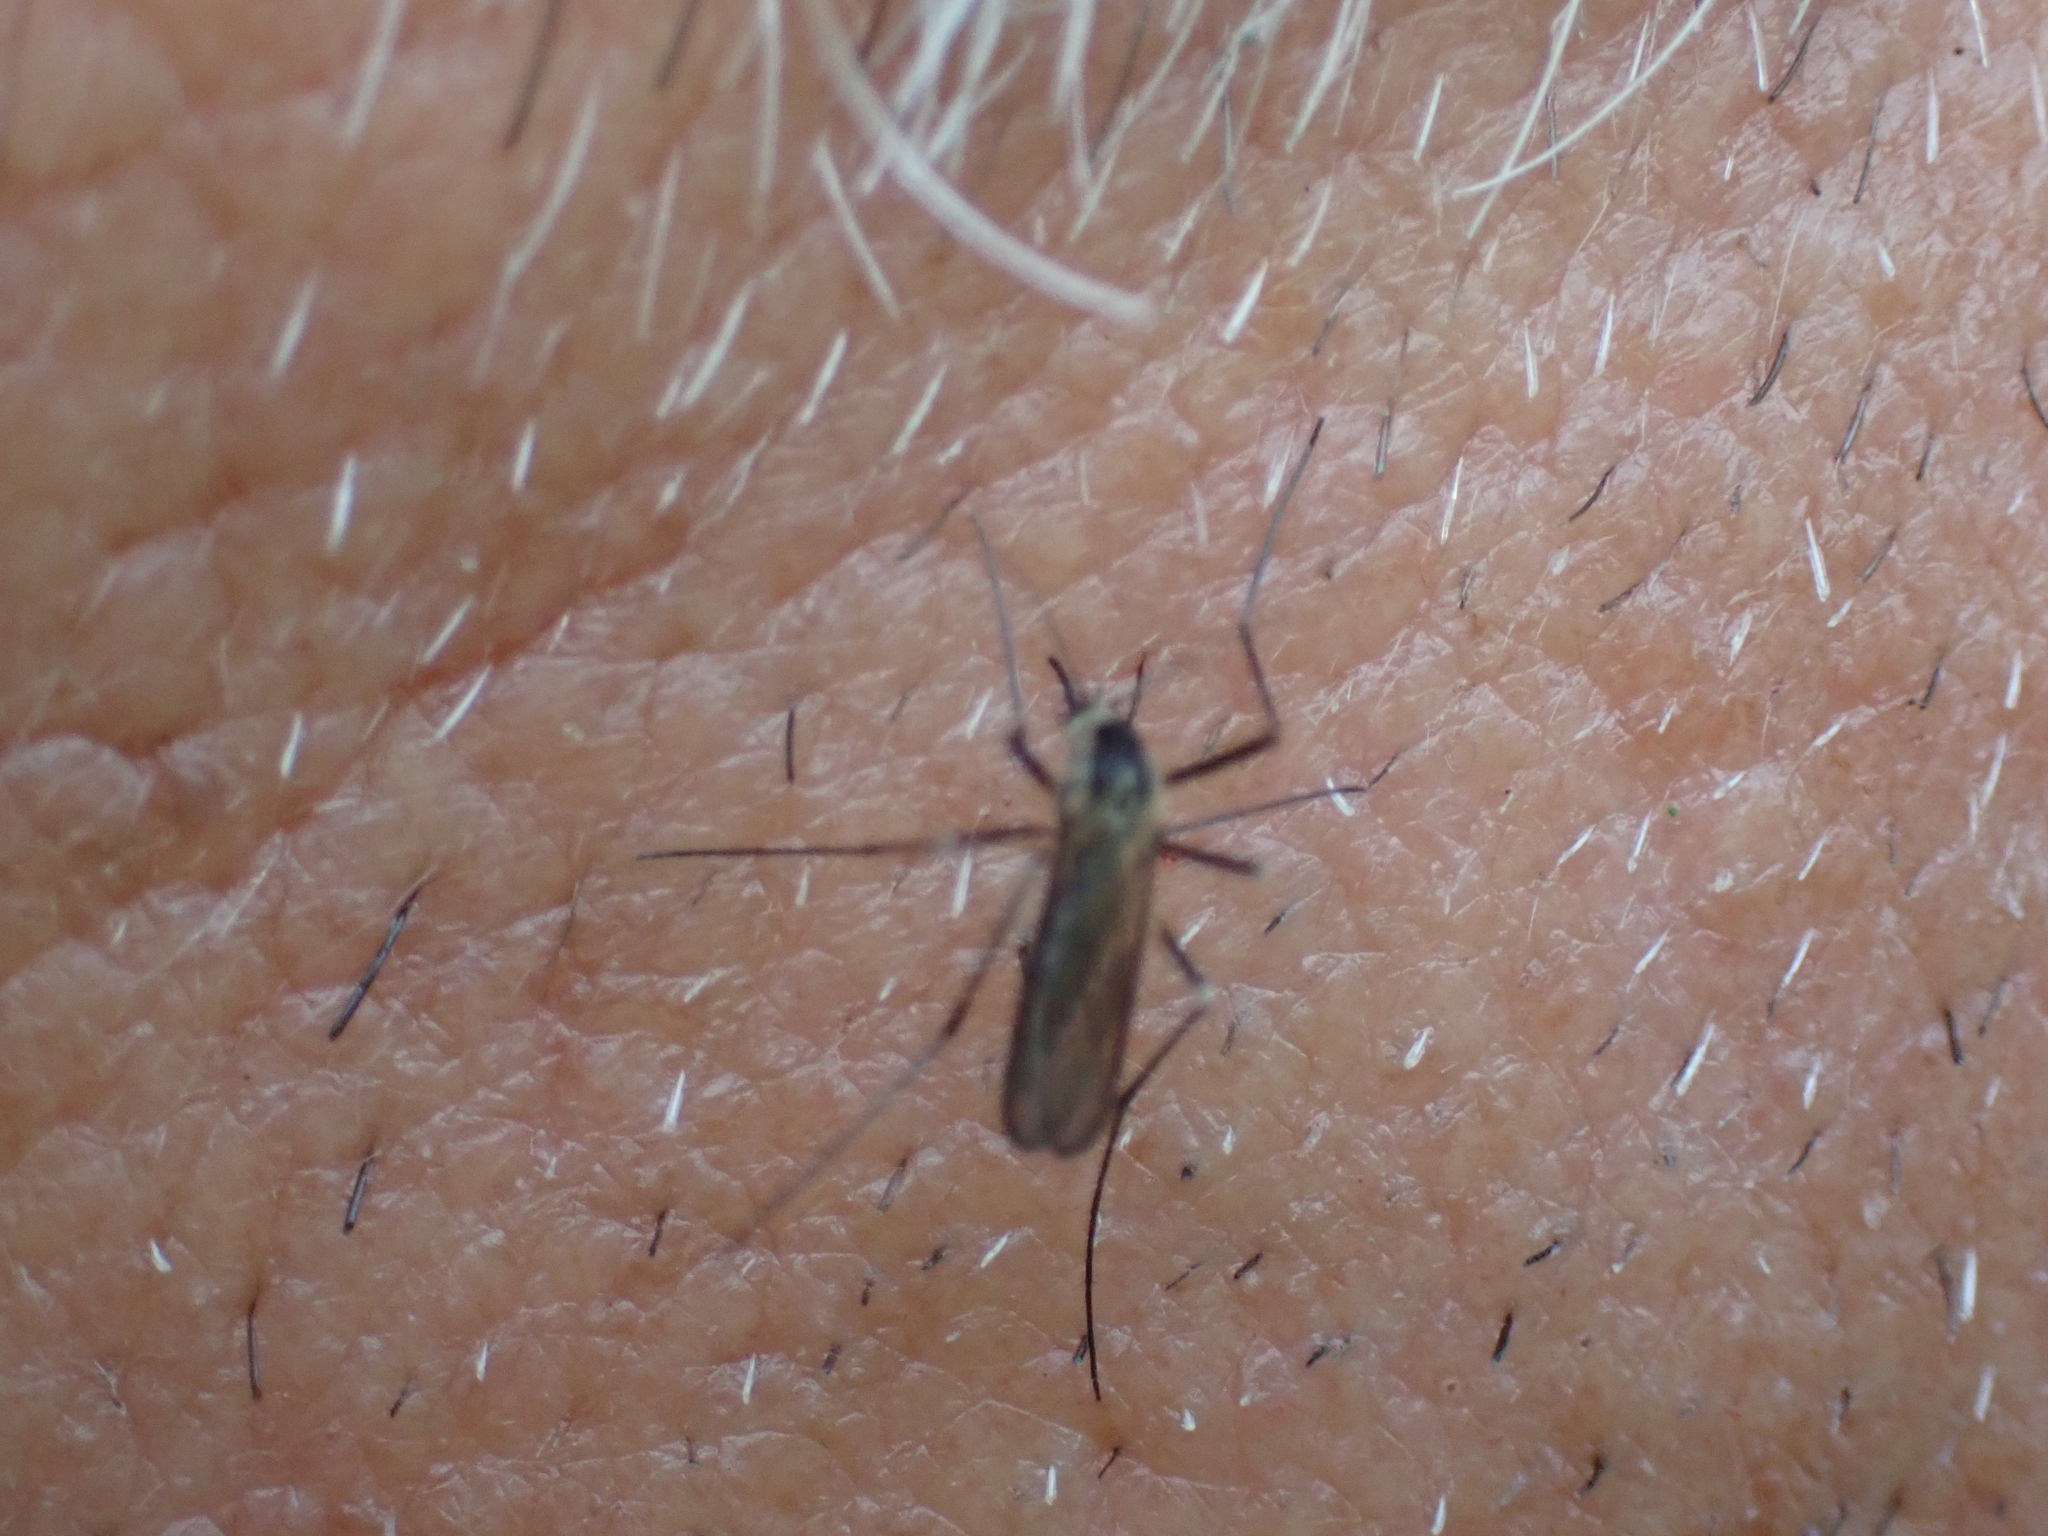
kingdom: Animalia
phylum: Arthropoda
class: Insecta
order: Diptera
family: Culicidae
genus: Aedes
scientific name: Aedes triseriatus
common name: Eastern treehole mosquito
